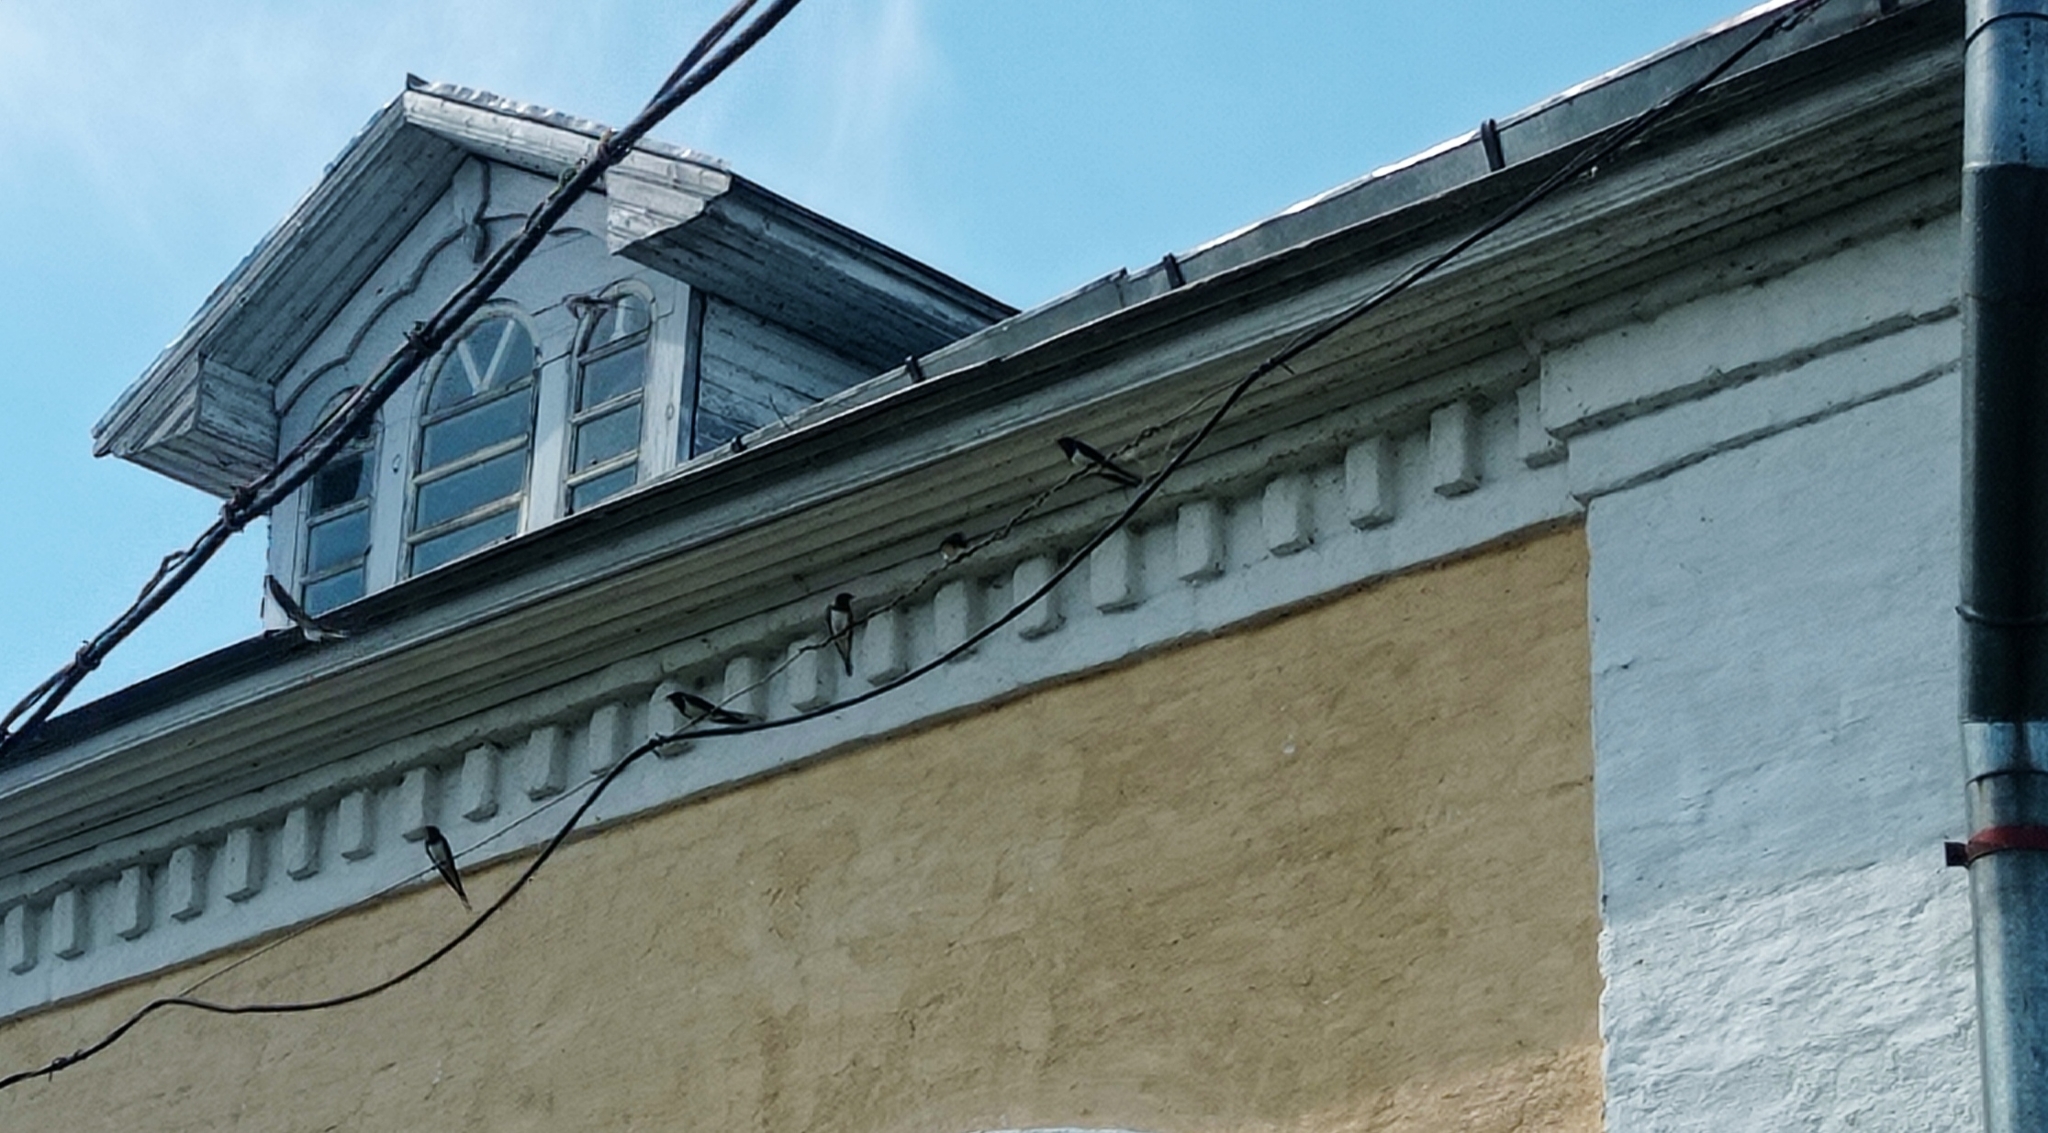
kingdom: Animalia
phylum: Chordata
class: Aves
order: Passeriformes
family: Hirundinidae
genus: Hirundo
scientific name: Hirundo rustica
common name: Barn swallow
